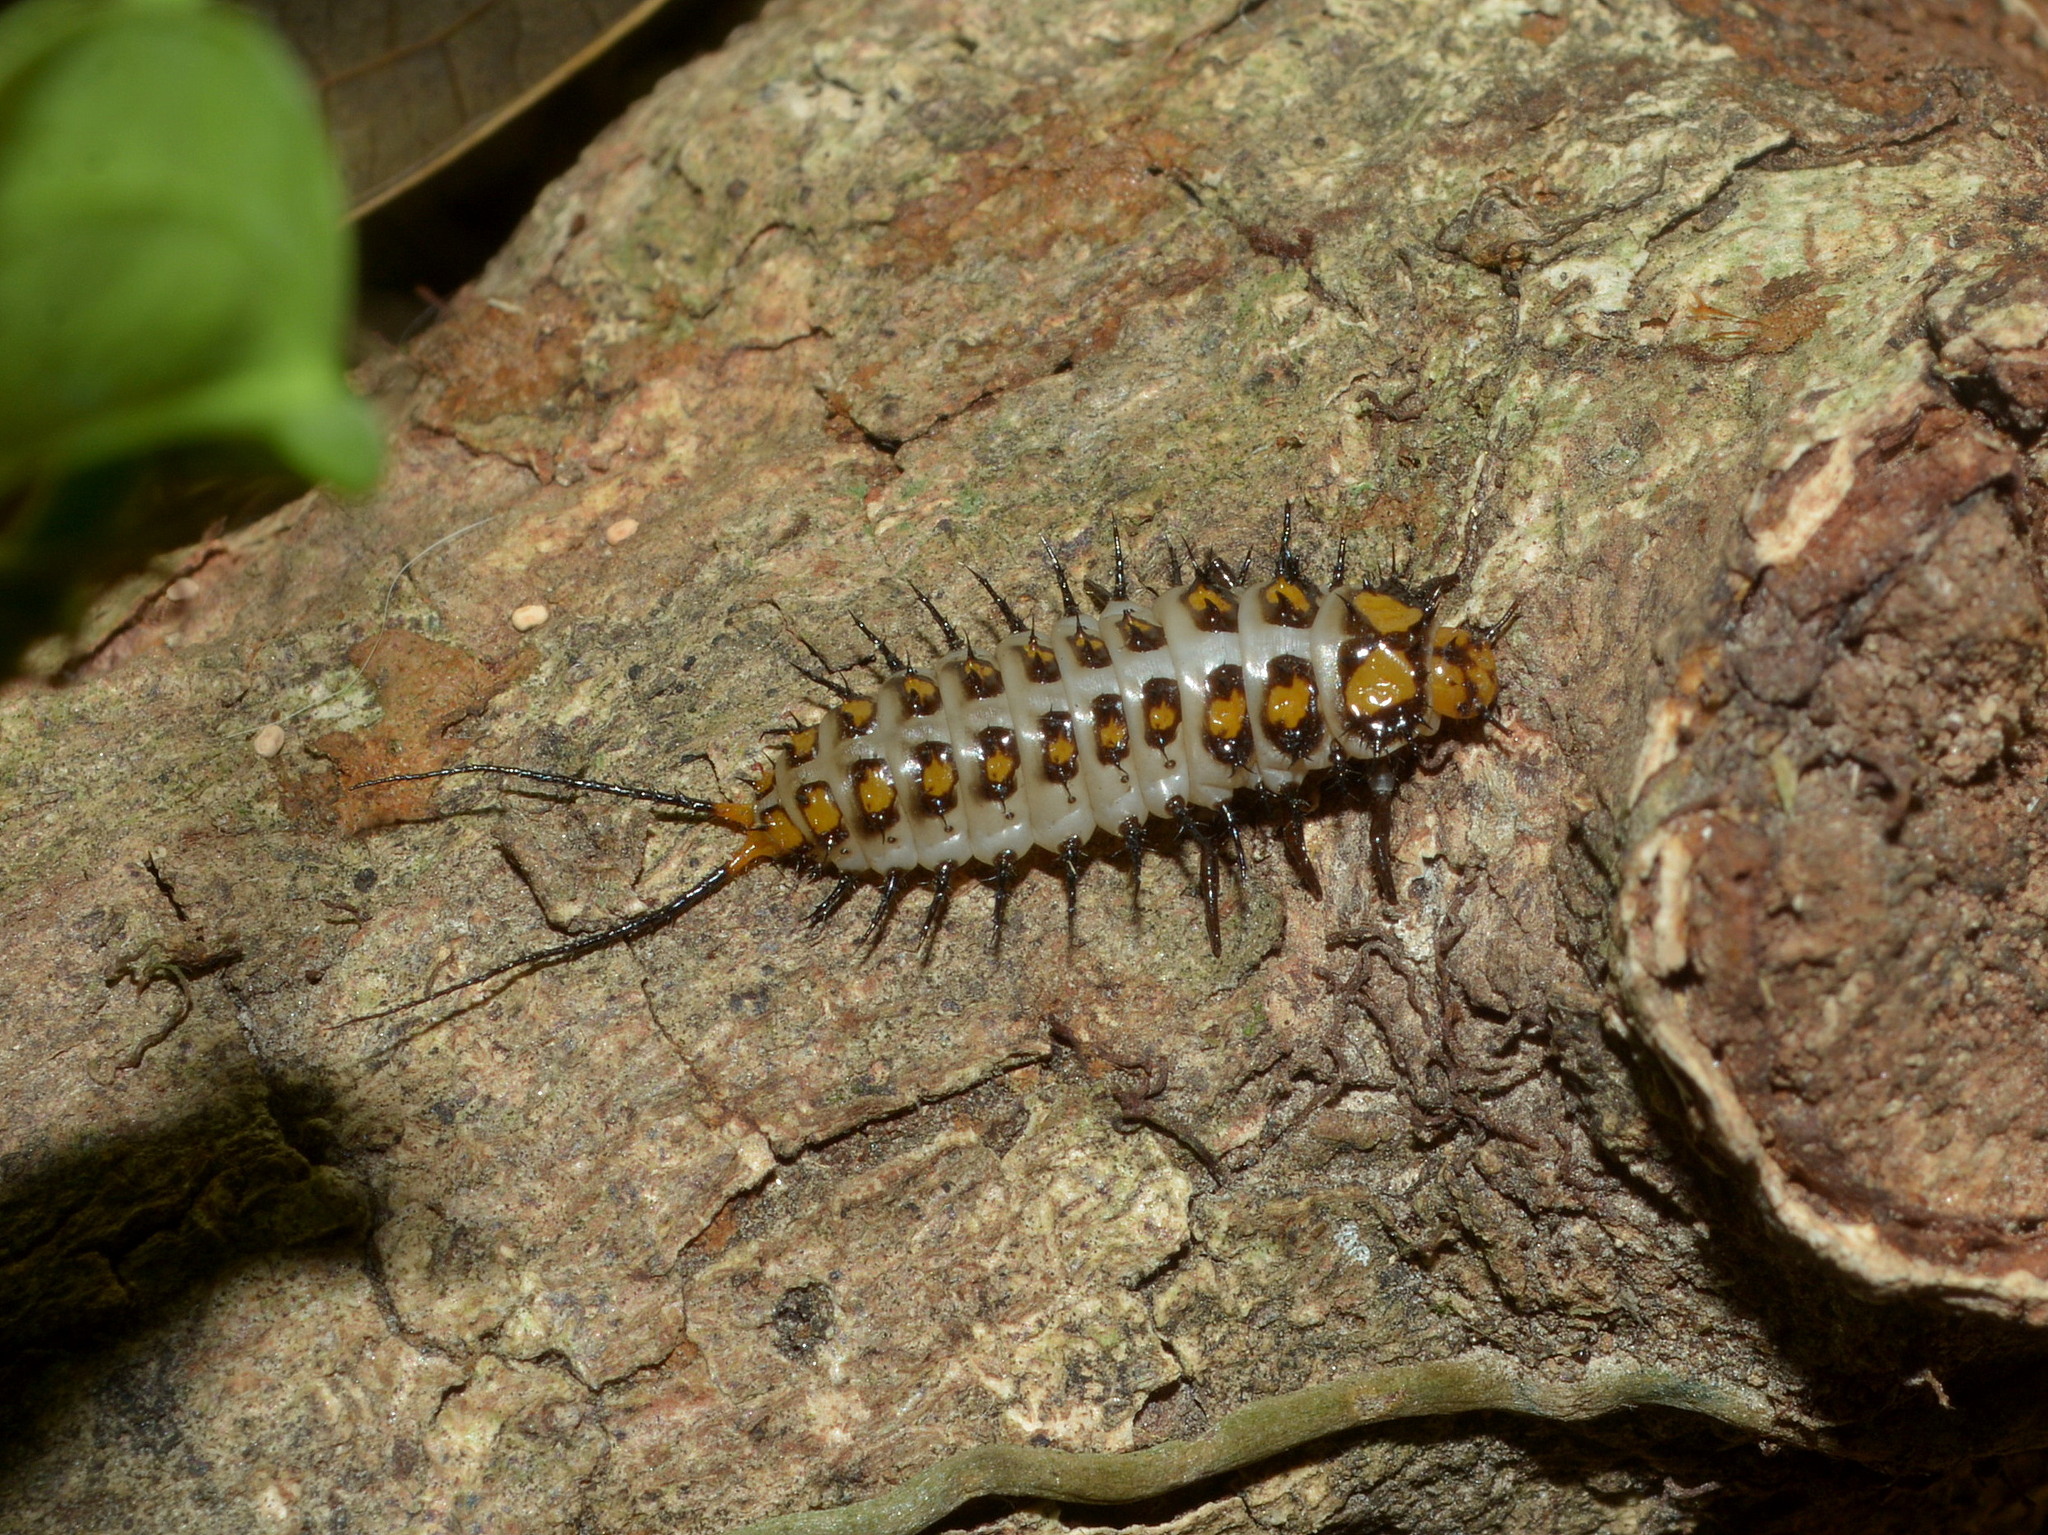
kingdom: Animalia
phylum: Arthropoda
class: Insecta
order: Coleoptera
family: Erotylidae
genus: Gibbifer
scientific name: Gibbifer
